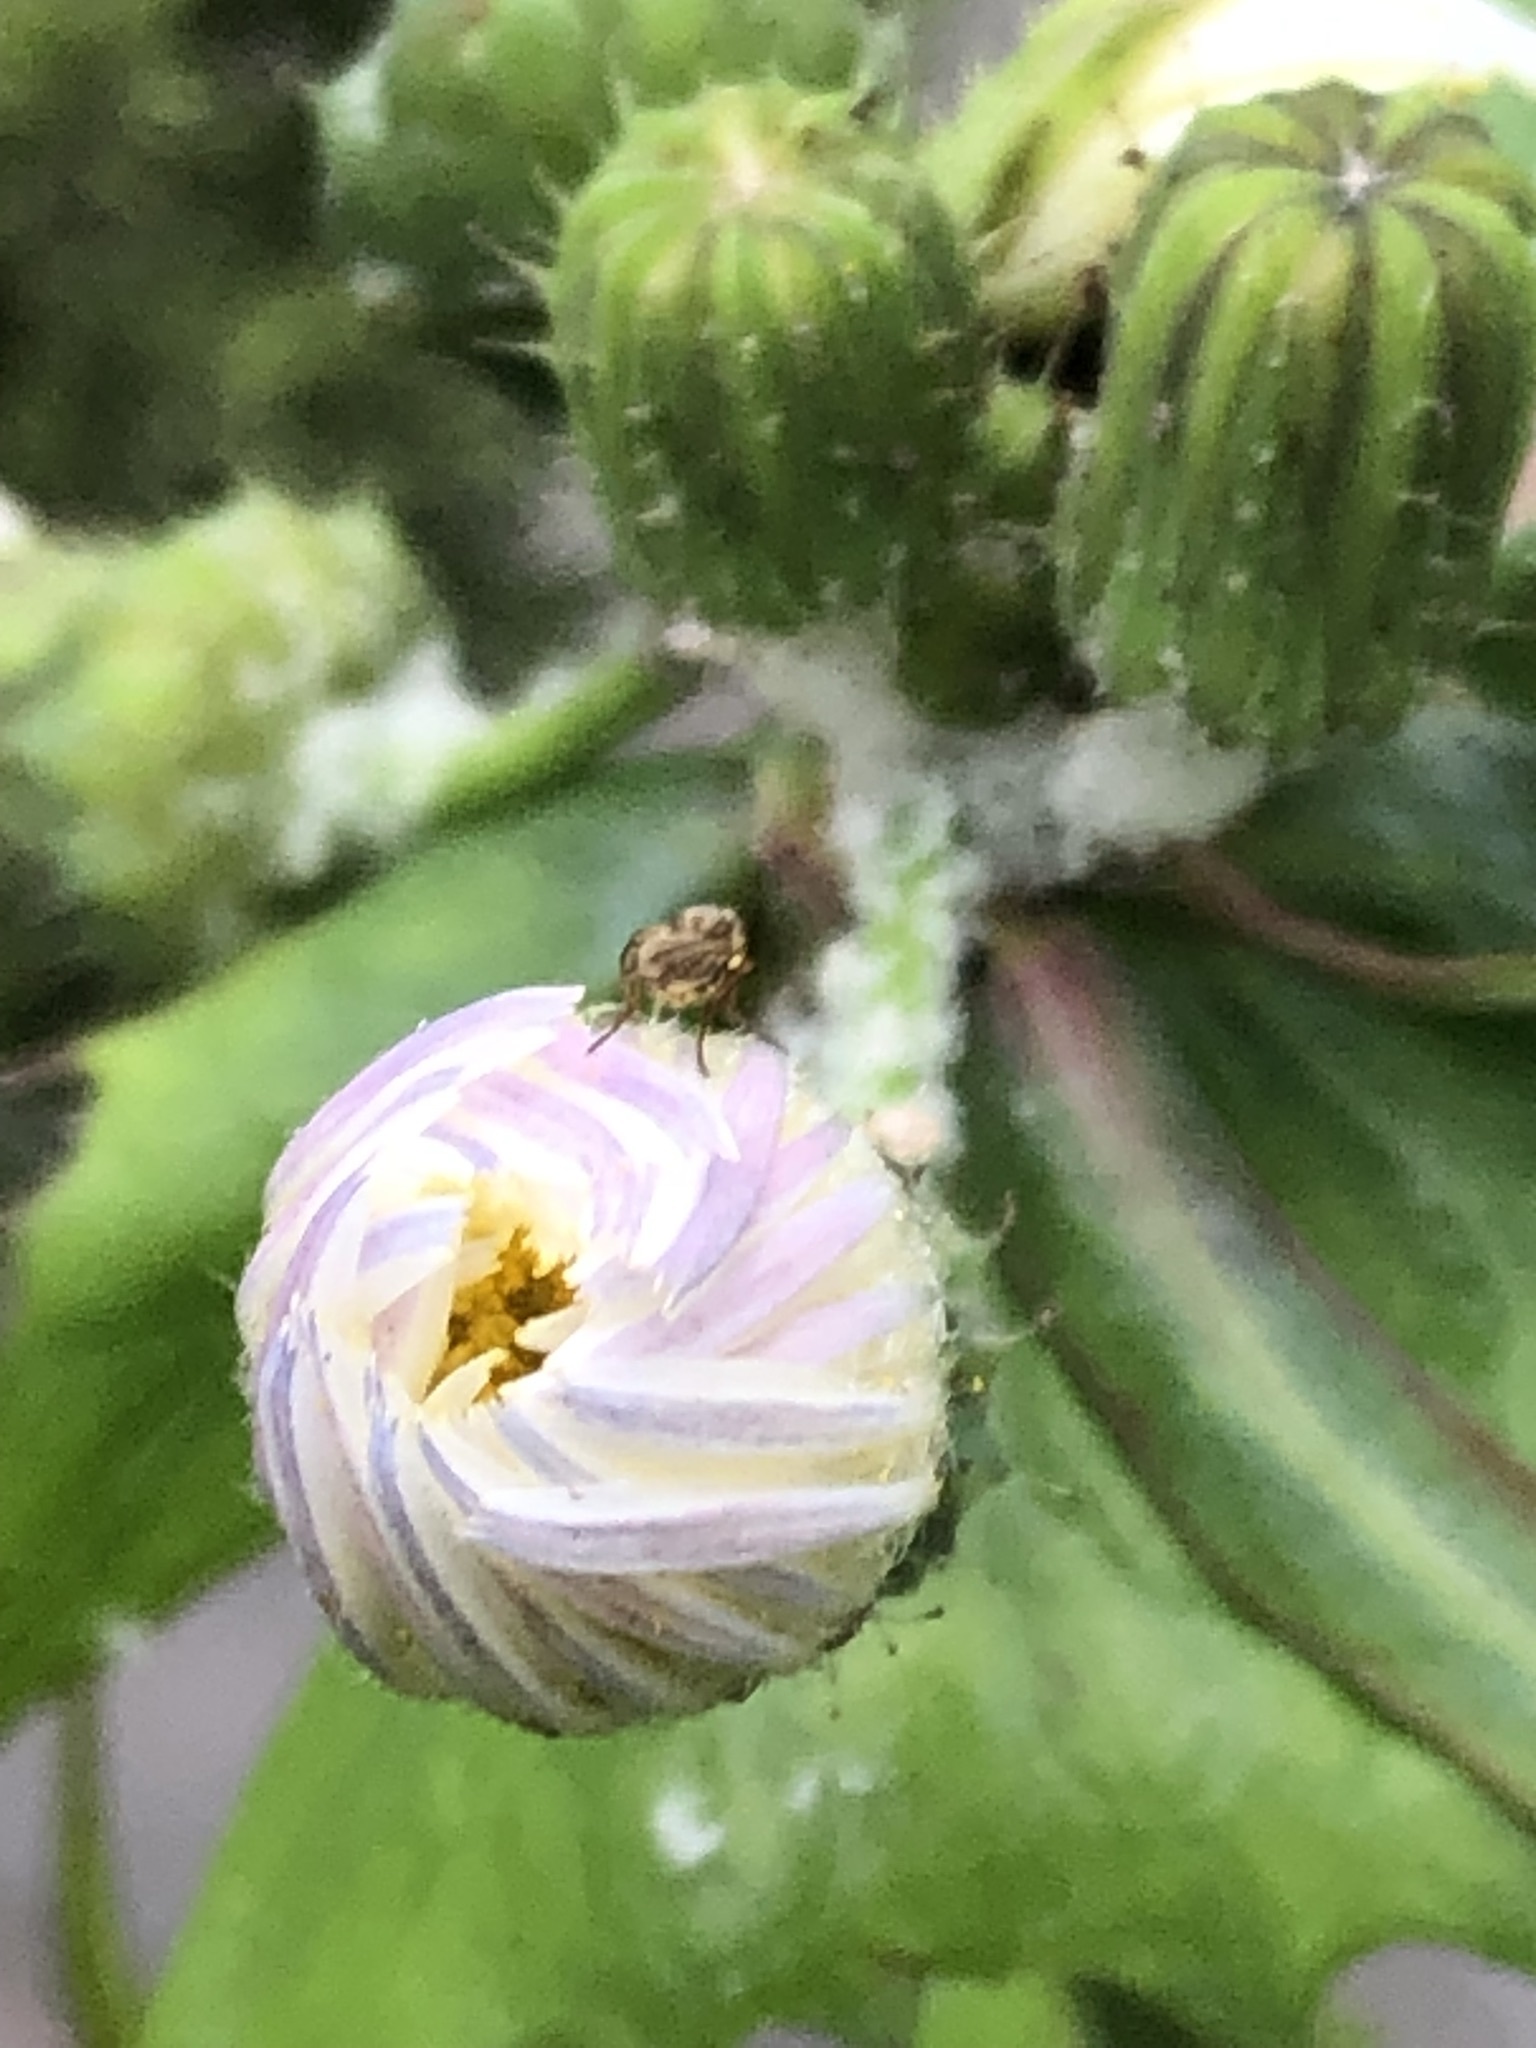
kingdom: Plantae
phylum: Tracheophyta
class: Magnoliopsida
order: Asterales
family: Asteraceae
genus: Sonchus
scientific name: Sonchus oleraceus
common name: Common sowthistle
